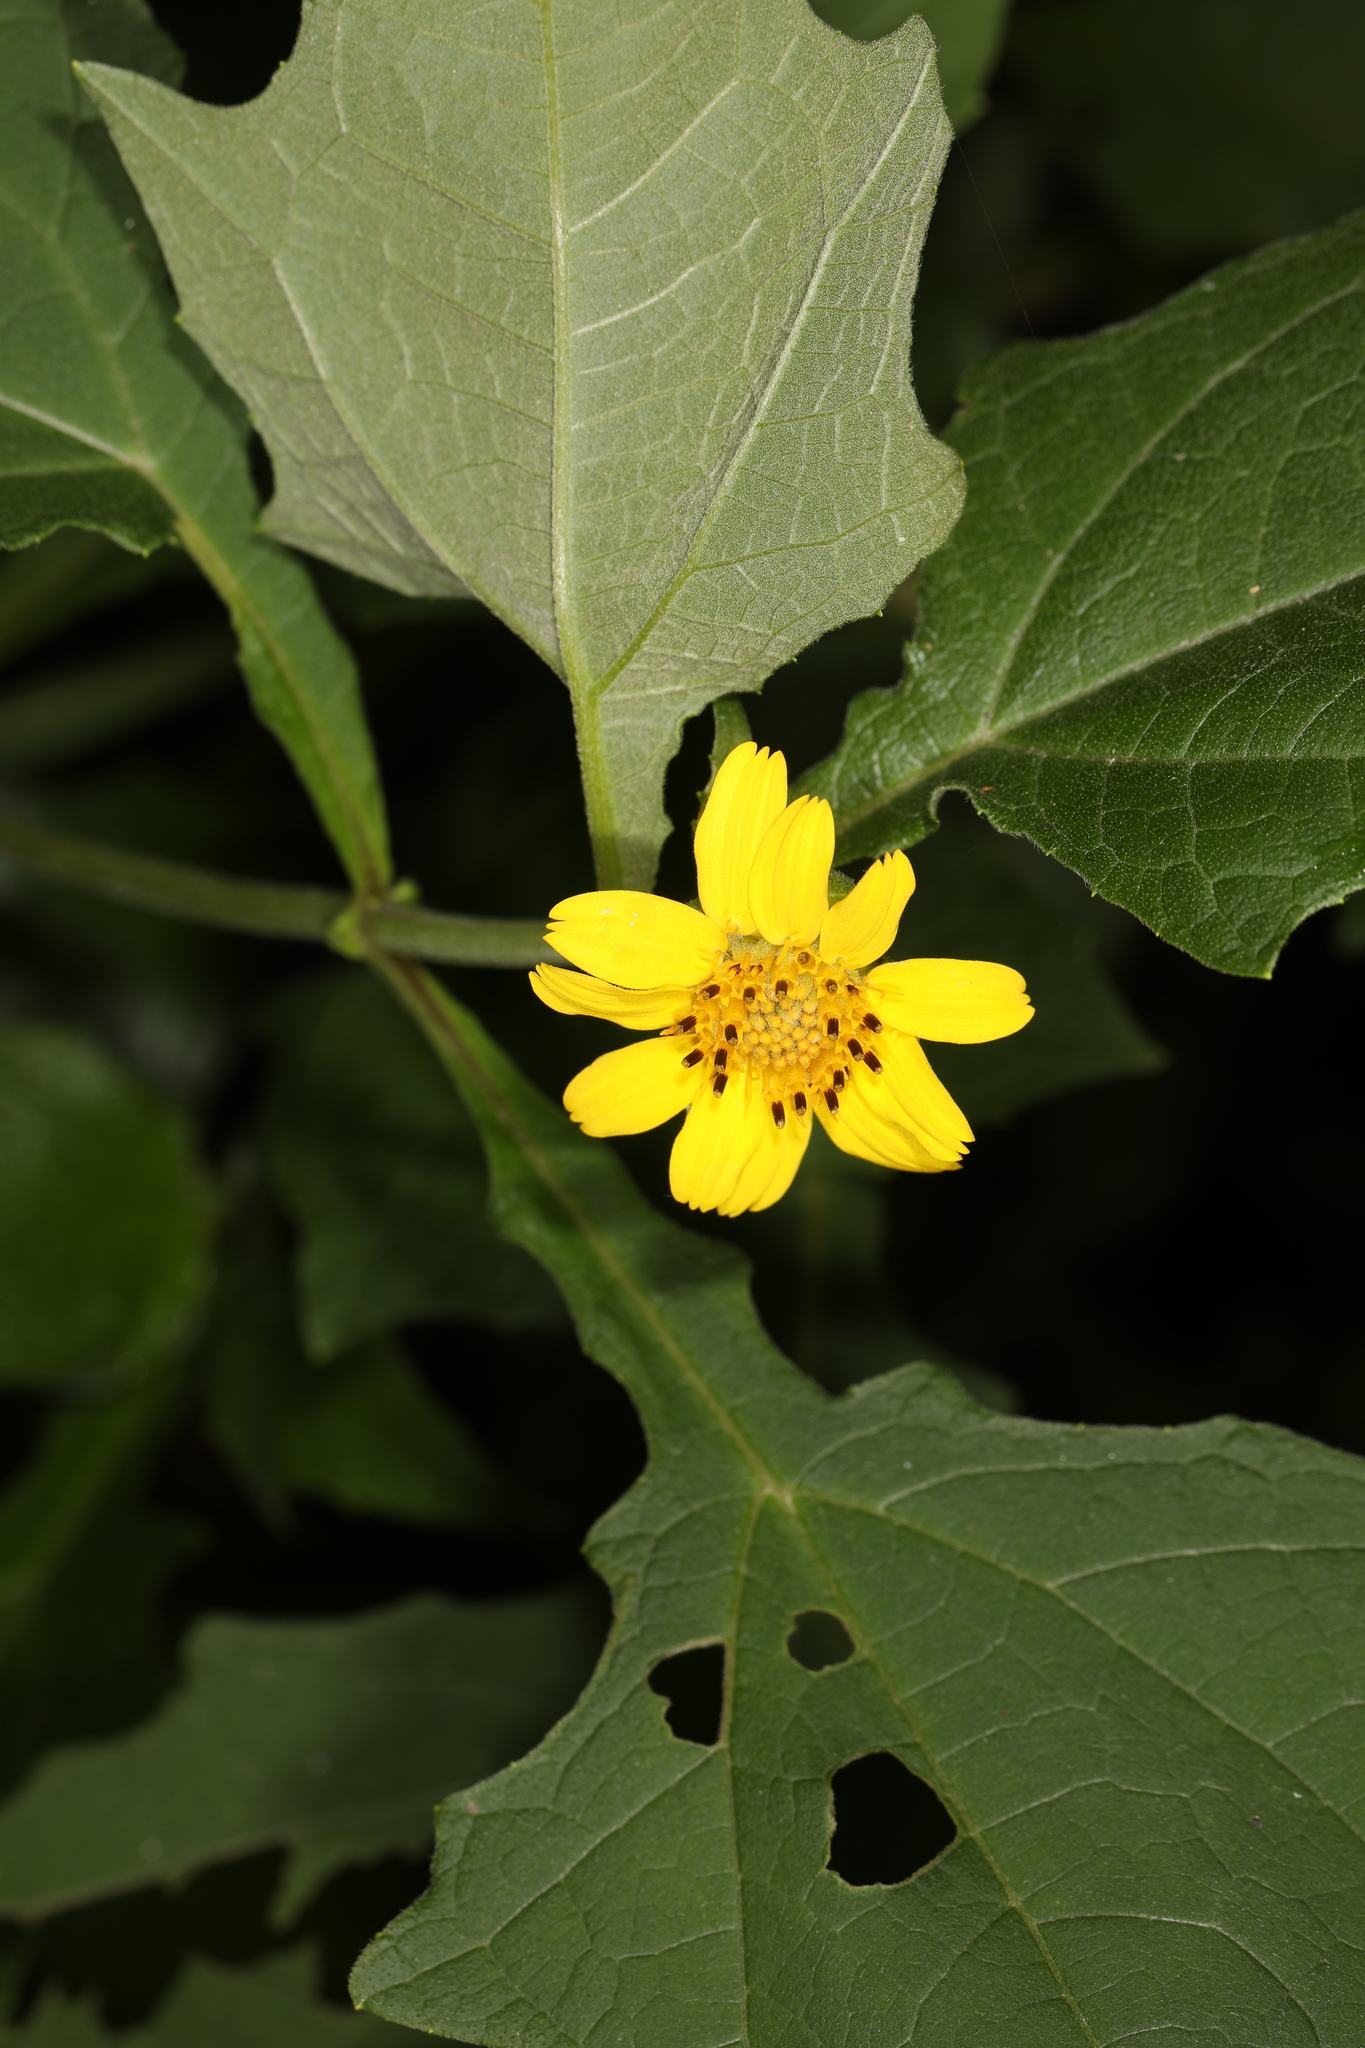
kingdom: Plantae
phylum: Tracheophyta
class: Magnoliopsida
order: Asterales
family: Asteraceae
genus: Smallanthus
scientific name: Smallanthus uvedalia
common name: Bear's-foot
